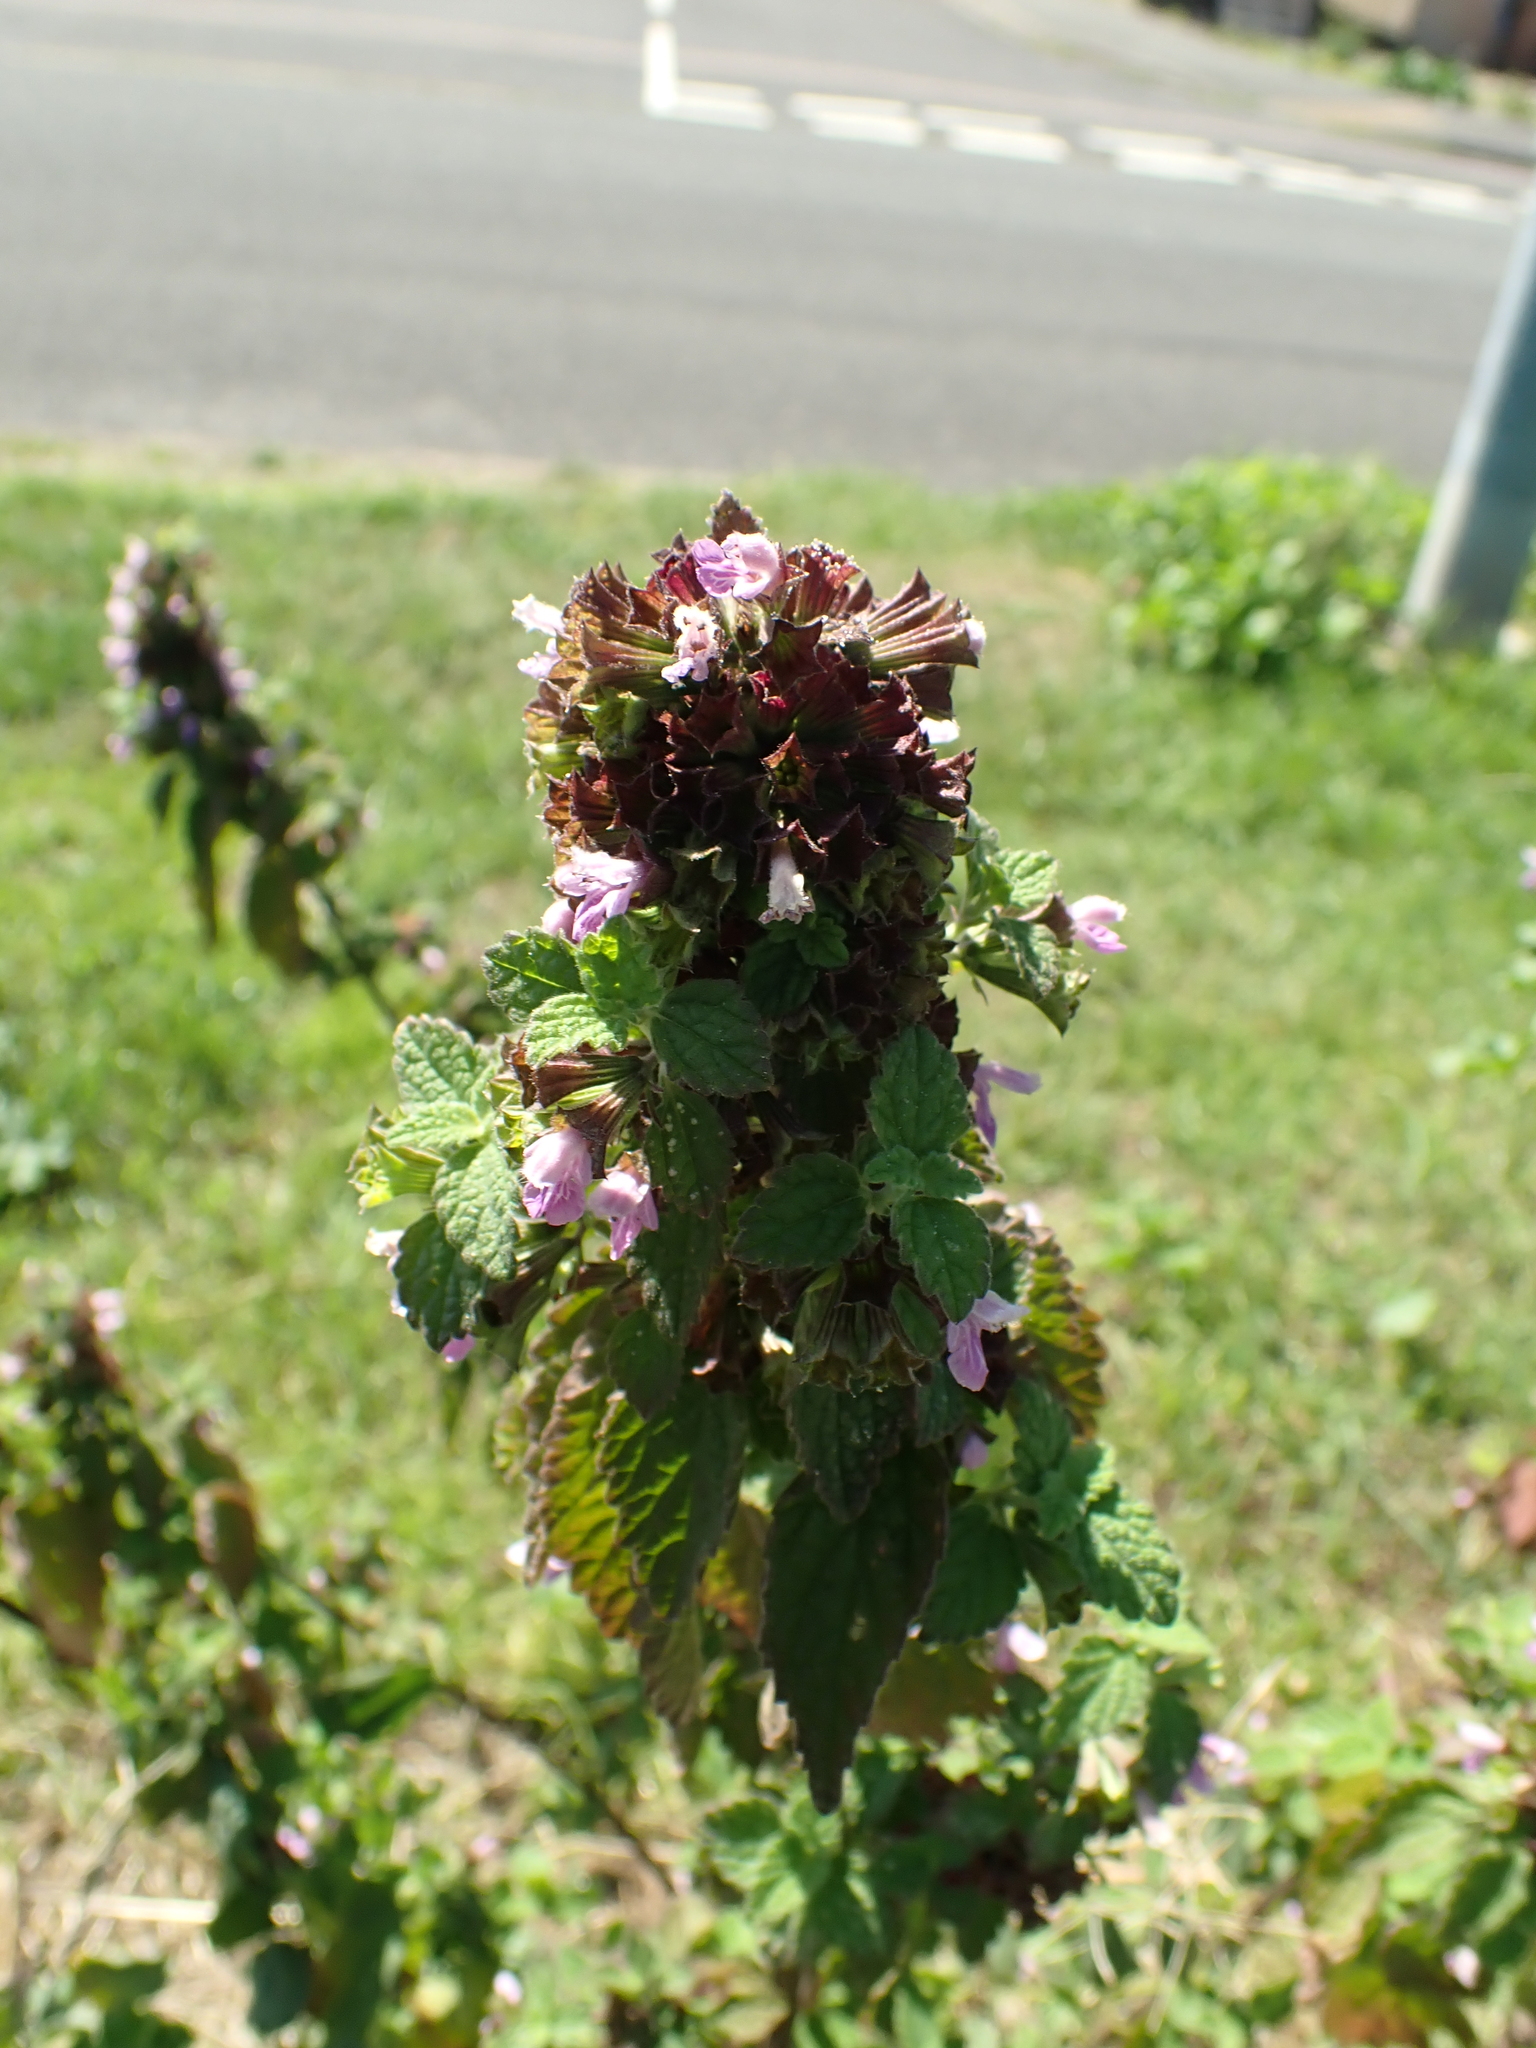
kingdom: Plantae
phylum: Tracheophyta
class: Magnoliopsida
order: Lamiales
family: Lamiaceae
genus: Ballota
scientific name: Ballota nigra
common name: Black horehound
